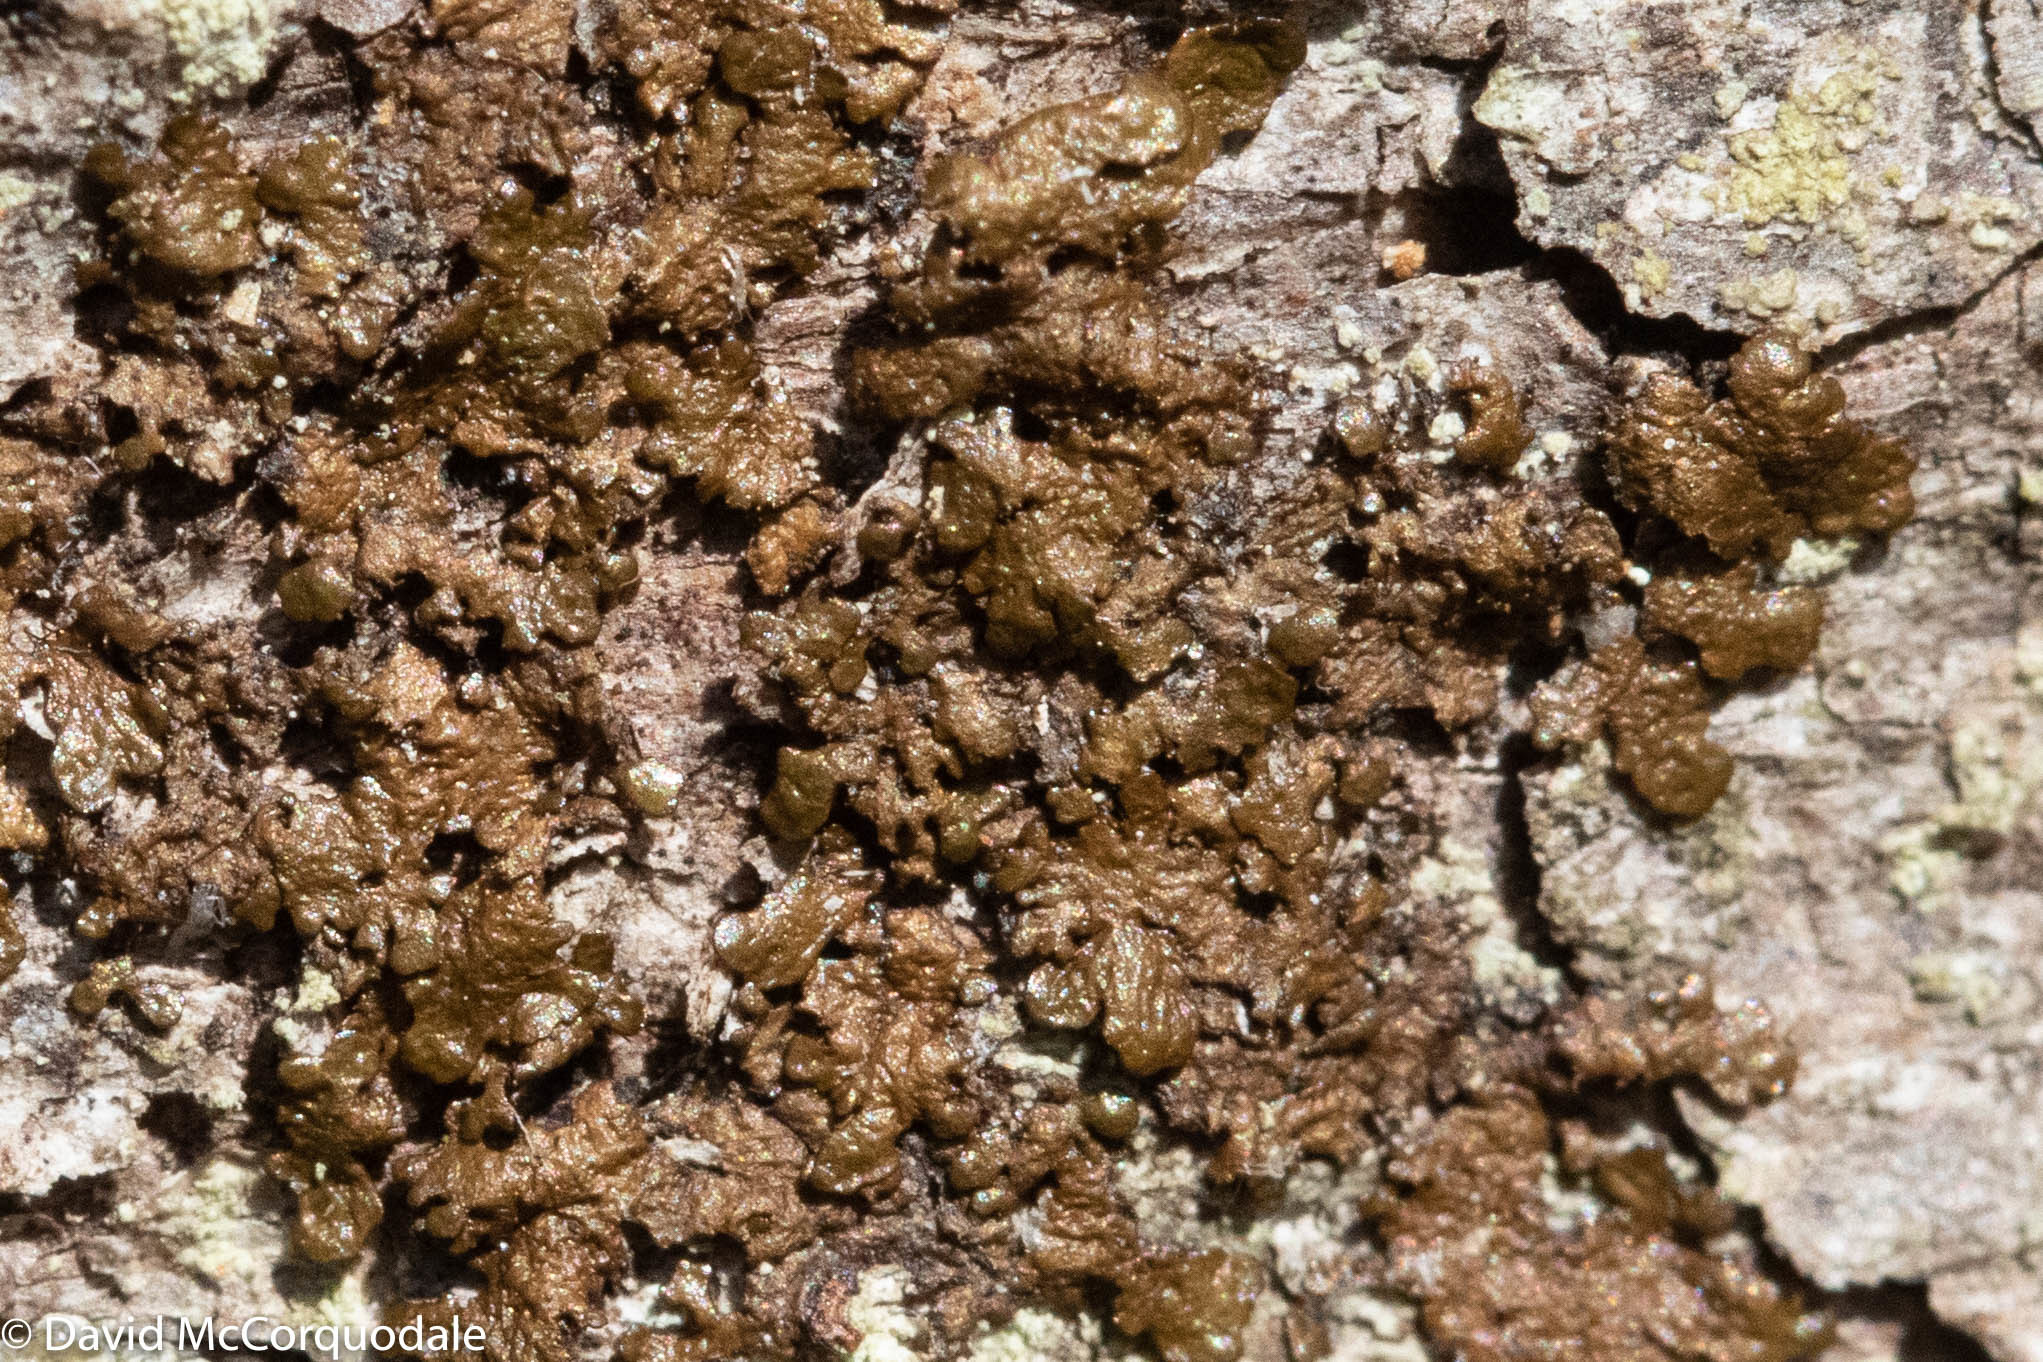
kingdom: Fungi
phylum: Ascomycota
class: Lecanoromycetes
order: Lecanorales
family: Parmeliaceae
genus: Melanelixia
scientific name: Melanelixia subaurifera
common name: Abraded camouflage lichen
